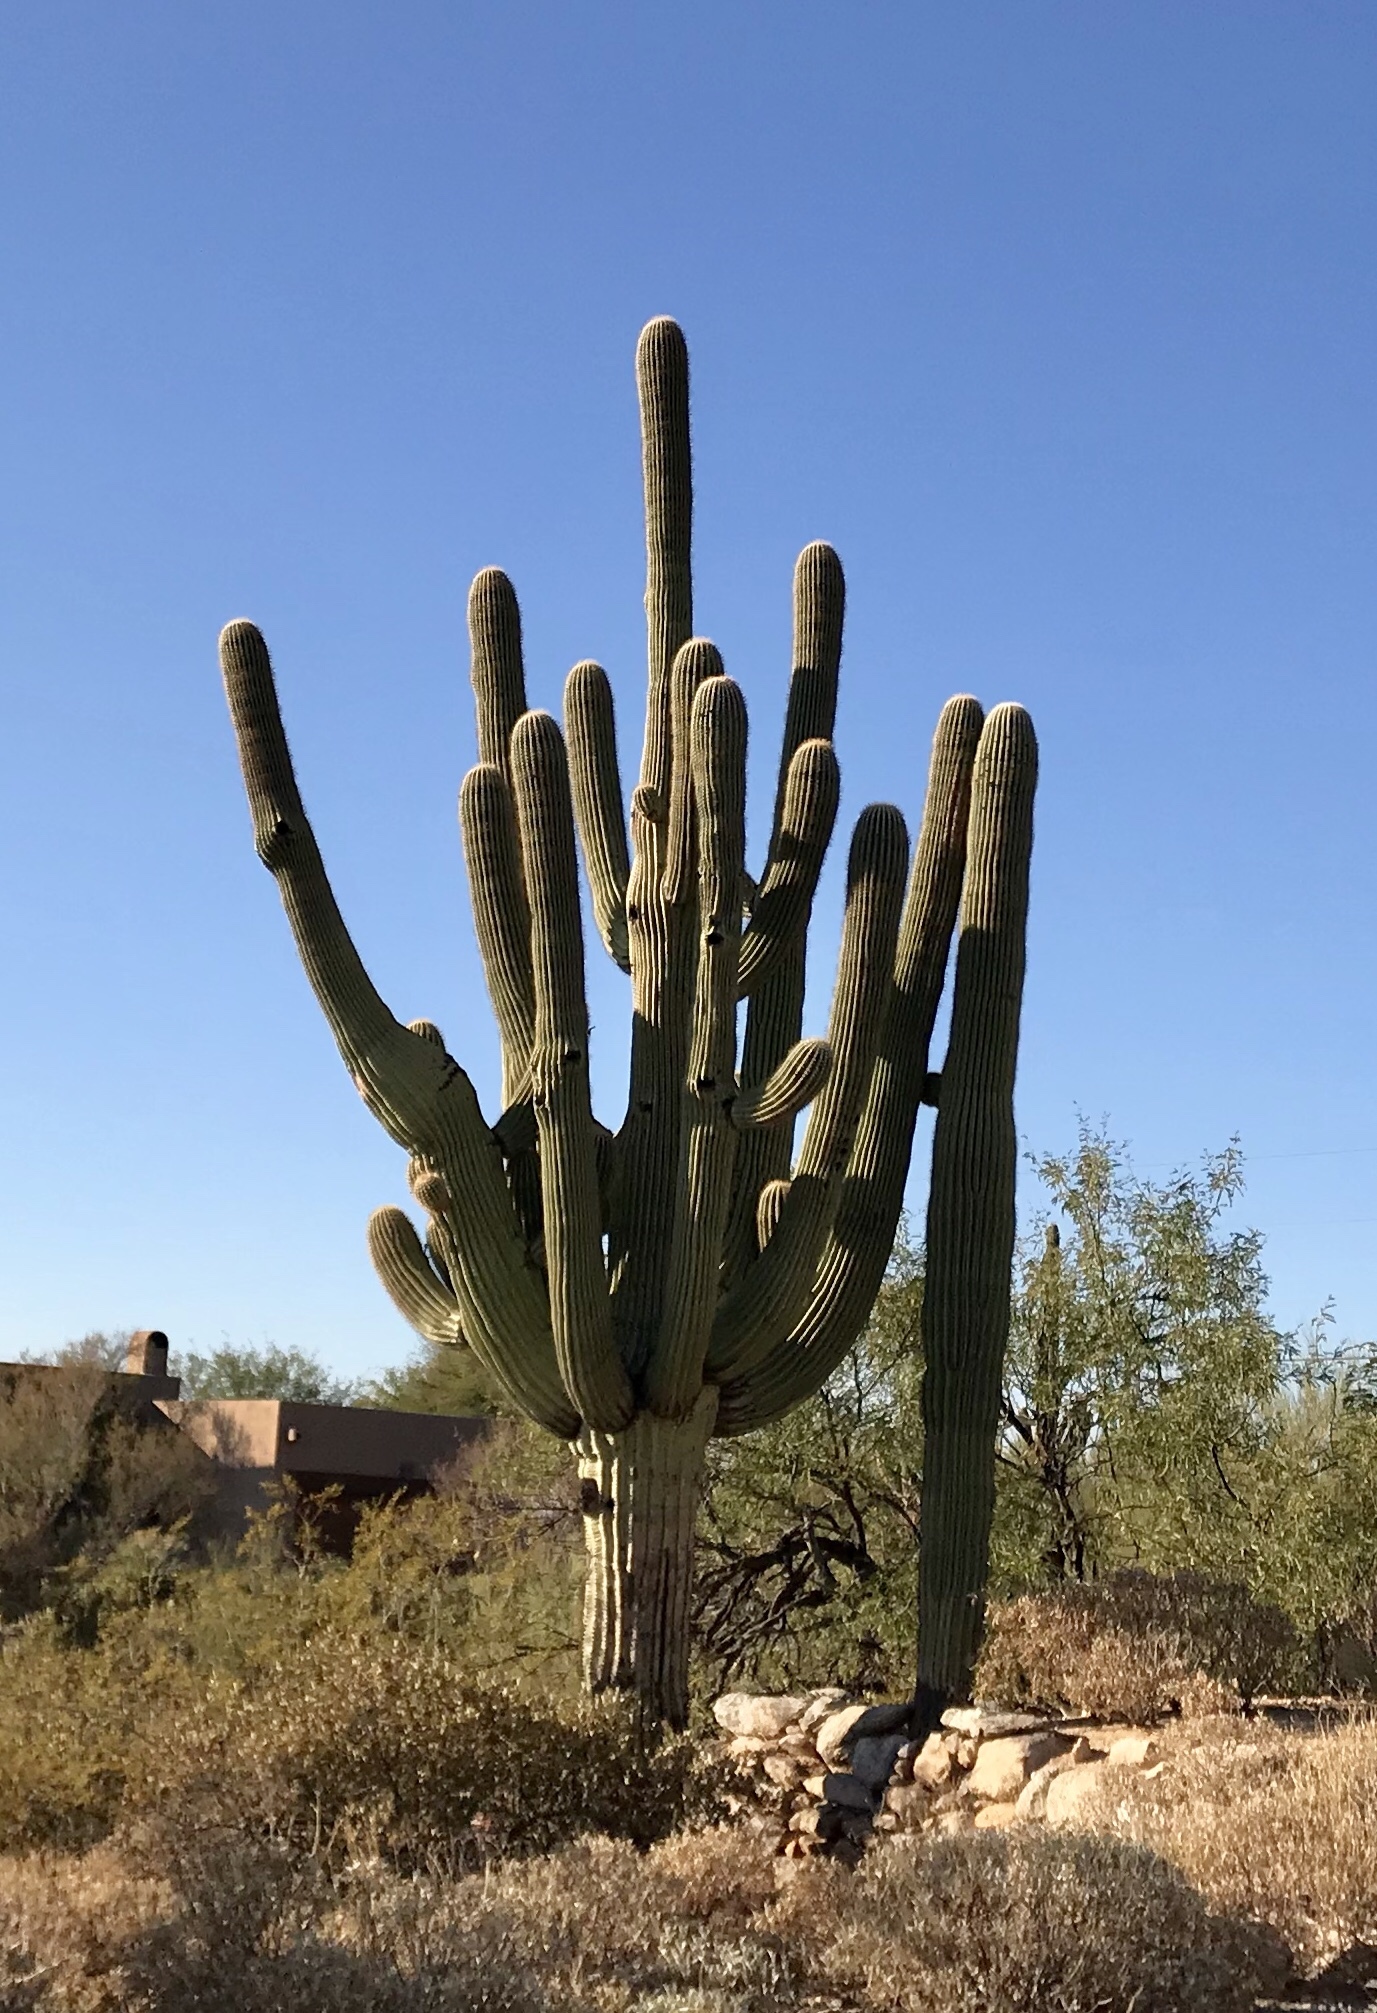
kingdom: Plantae
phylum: Tracheophyta
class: Magnoliopsida
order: Caryophyllales
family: Cactaceae
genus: Carnegiea
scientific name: Carnegiea gigantea
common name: Saguaro
